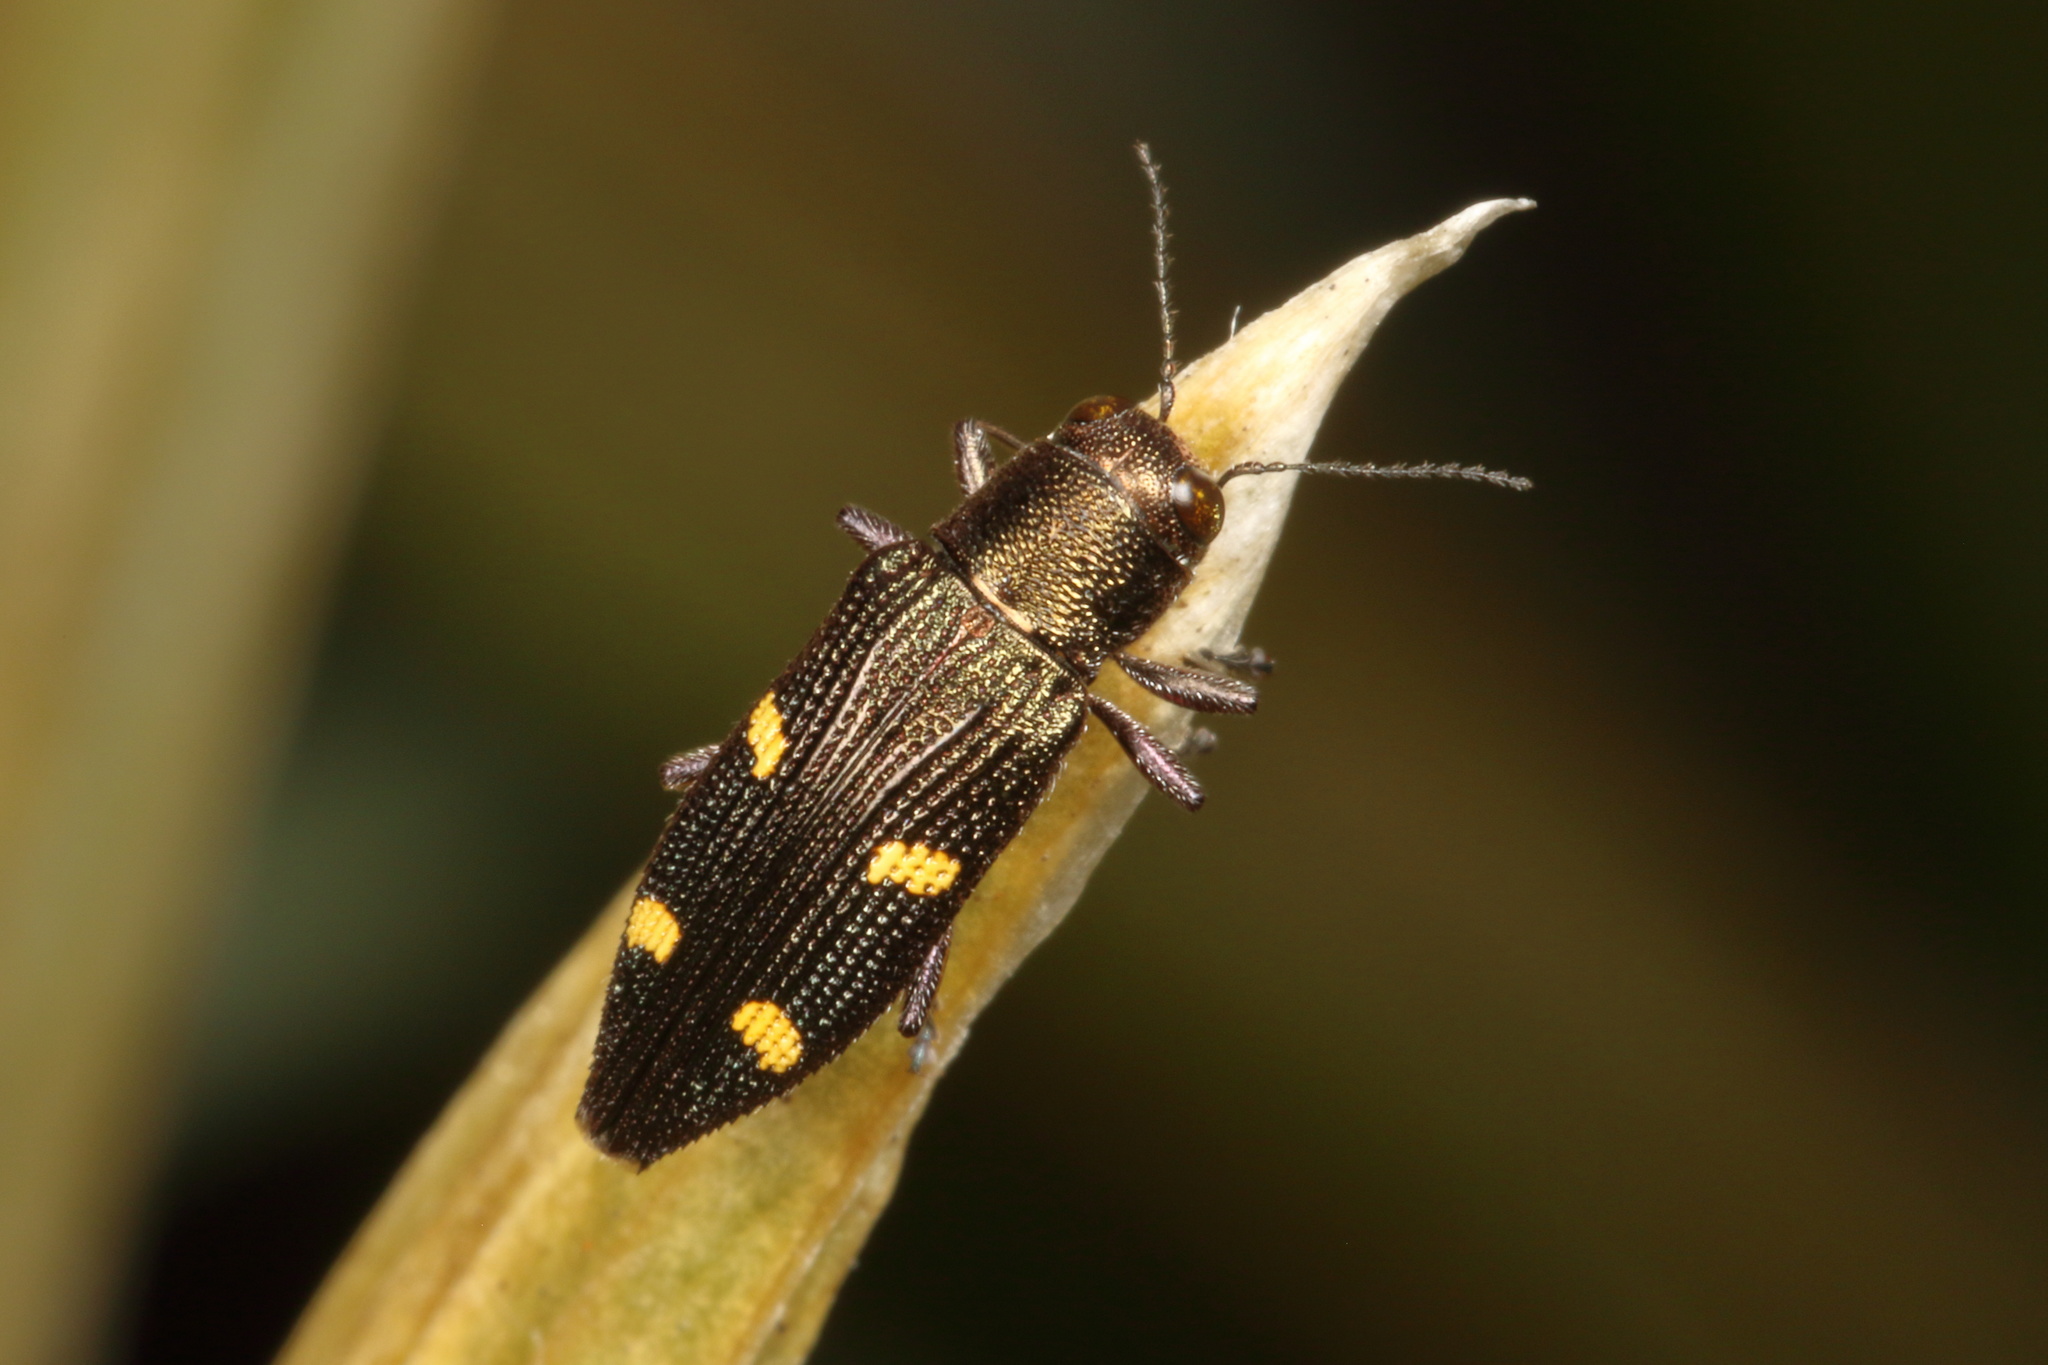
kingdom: Animalia
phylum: Arthropoda
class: Insecta
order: Coleoptera
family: Buprestidae
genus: Nascioides
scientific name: Nascioides enysi
